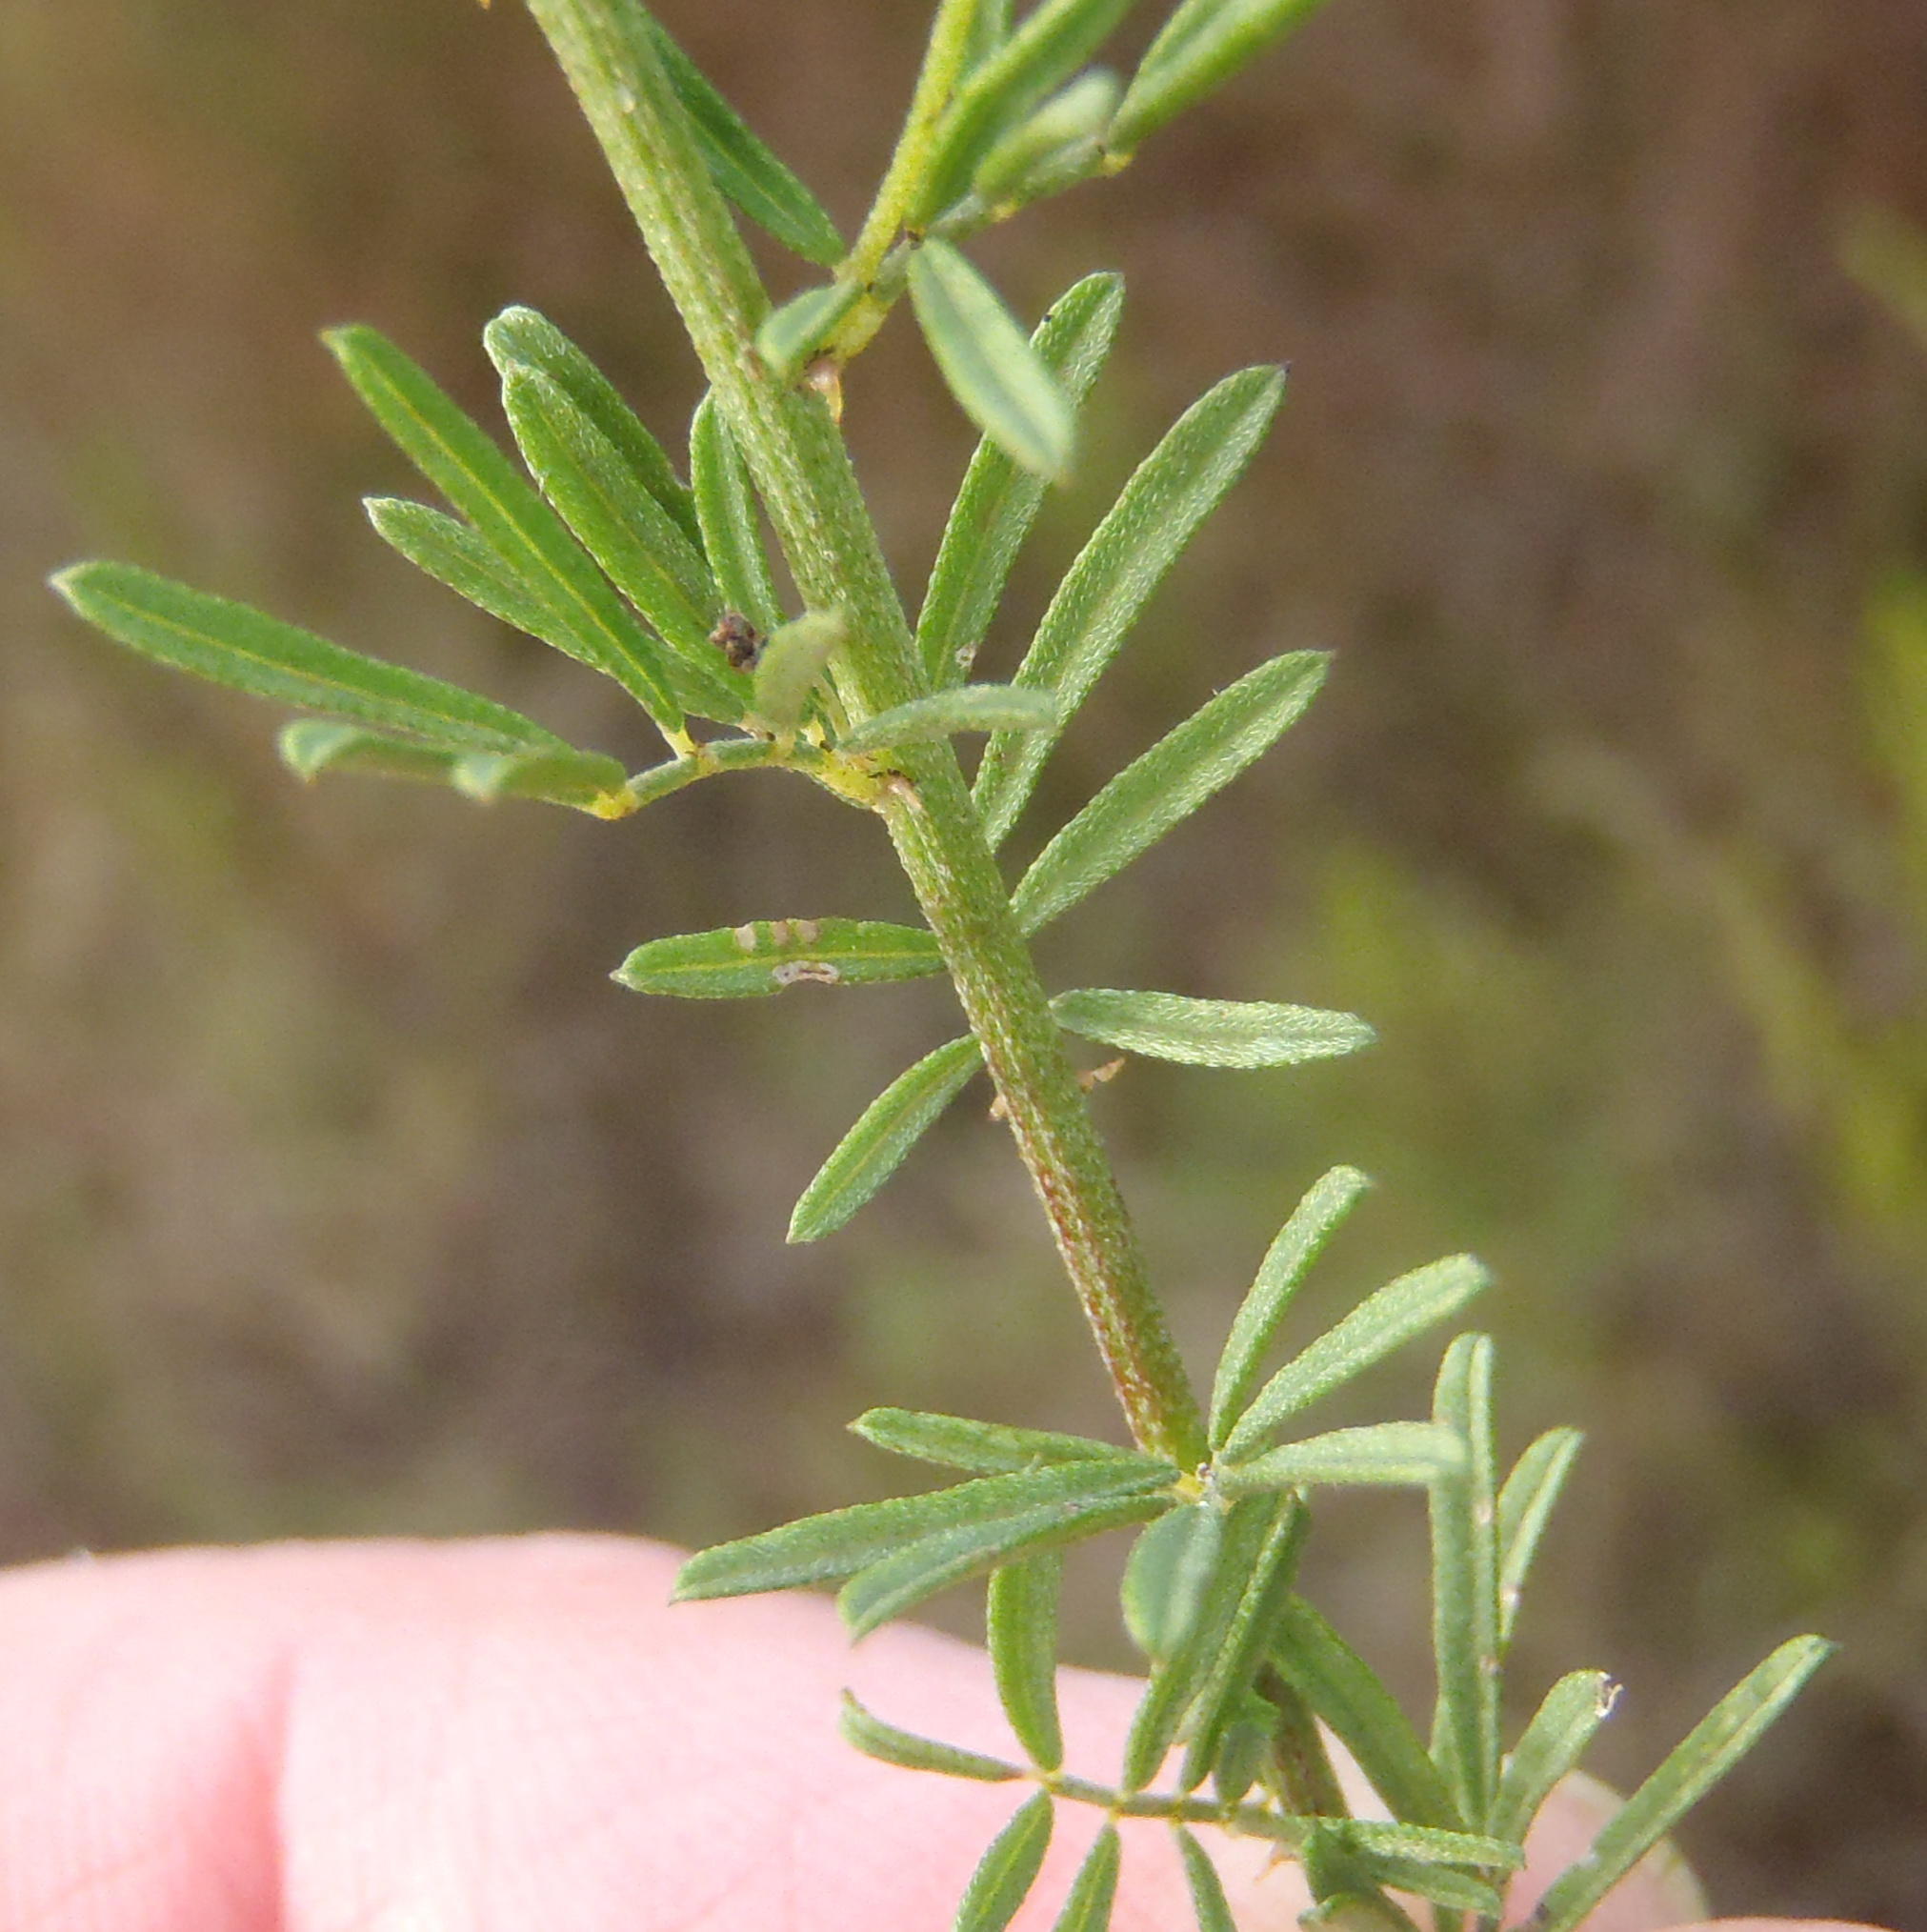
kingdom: Plantae
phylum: Tracheophyta
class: Magnoliopsida
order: Fabales
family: Fabaceae
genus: Indigofera
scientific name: Indigofera verrucosa
